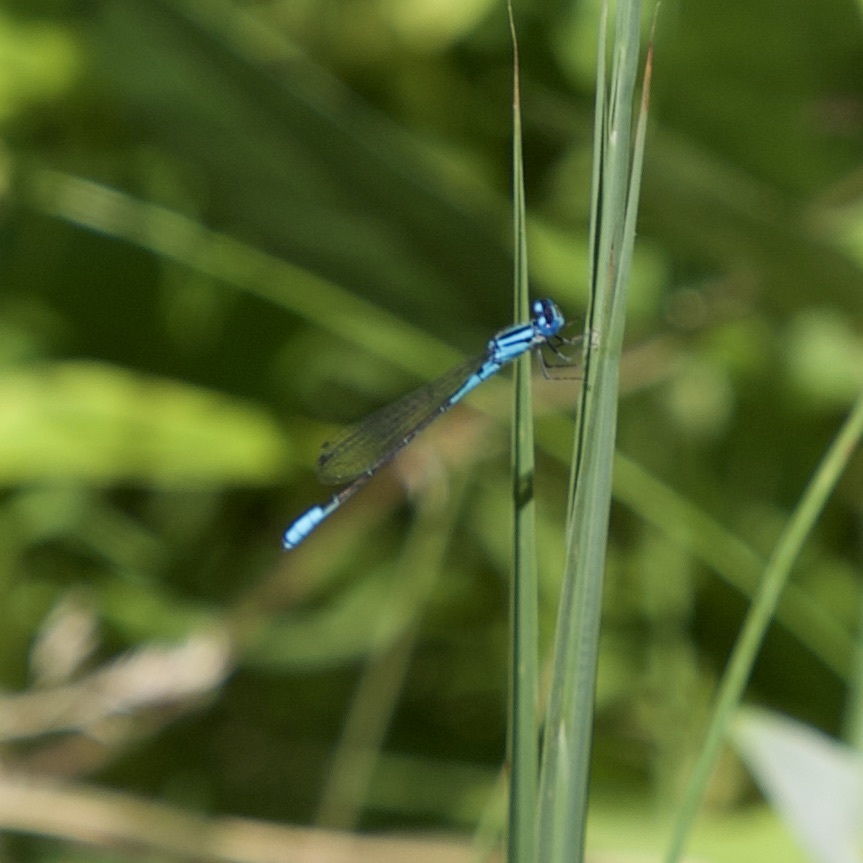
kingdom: Animalia
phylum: Arthropoda
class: Insecta
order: Odonata
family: Coenagrionidae
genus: Enallagma
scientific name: Enallagma aspersum
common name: Azure bluet
